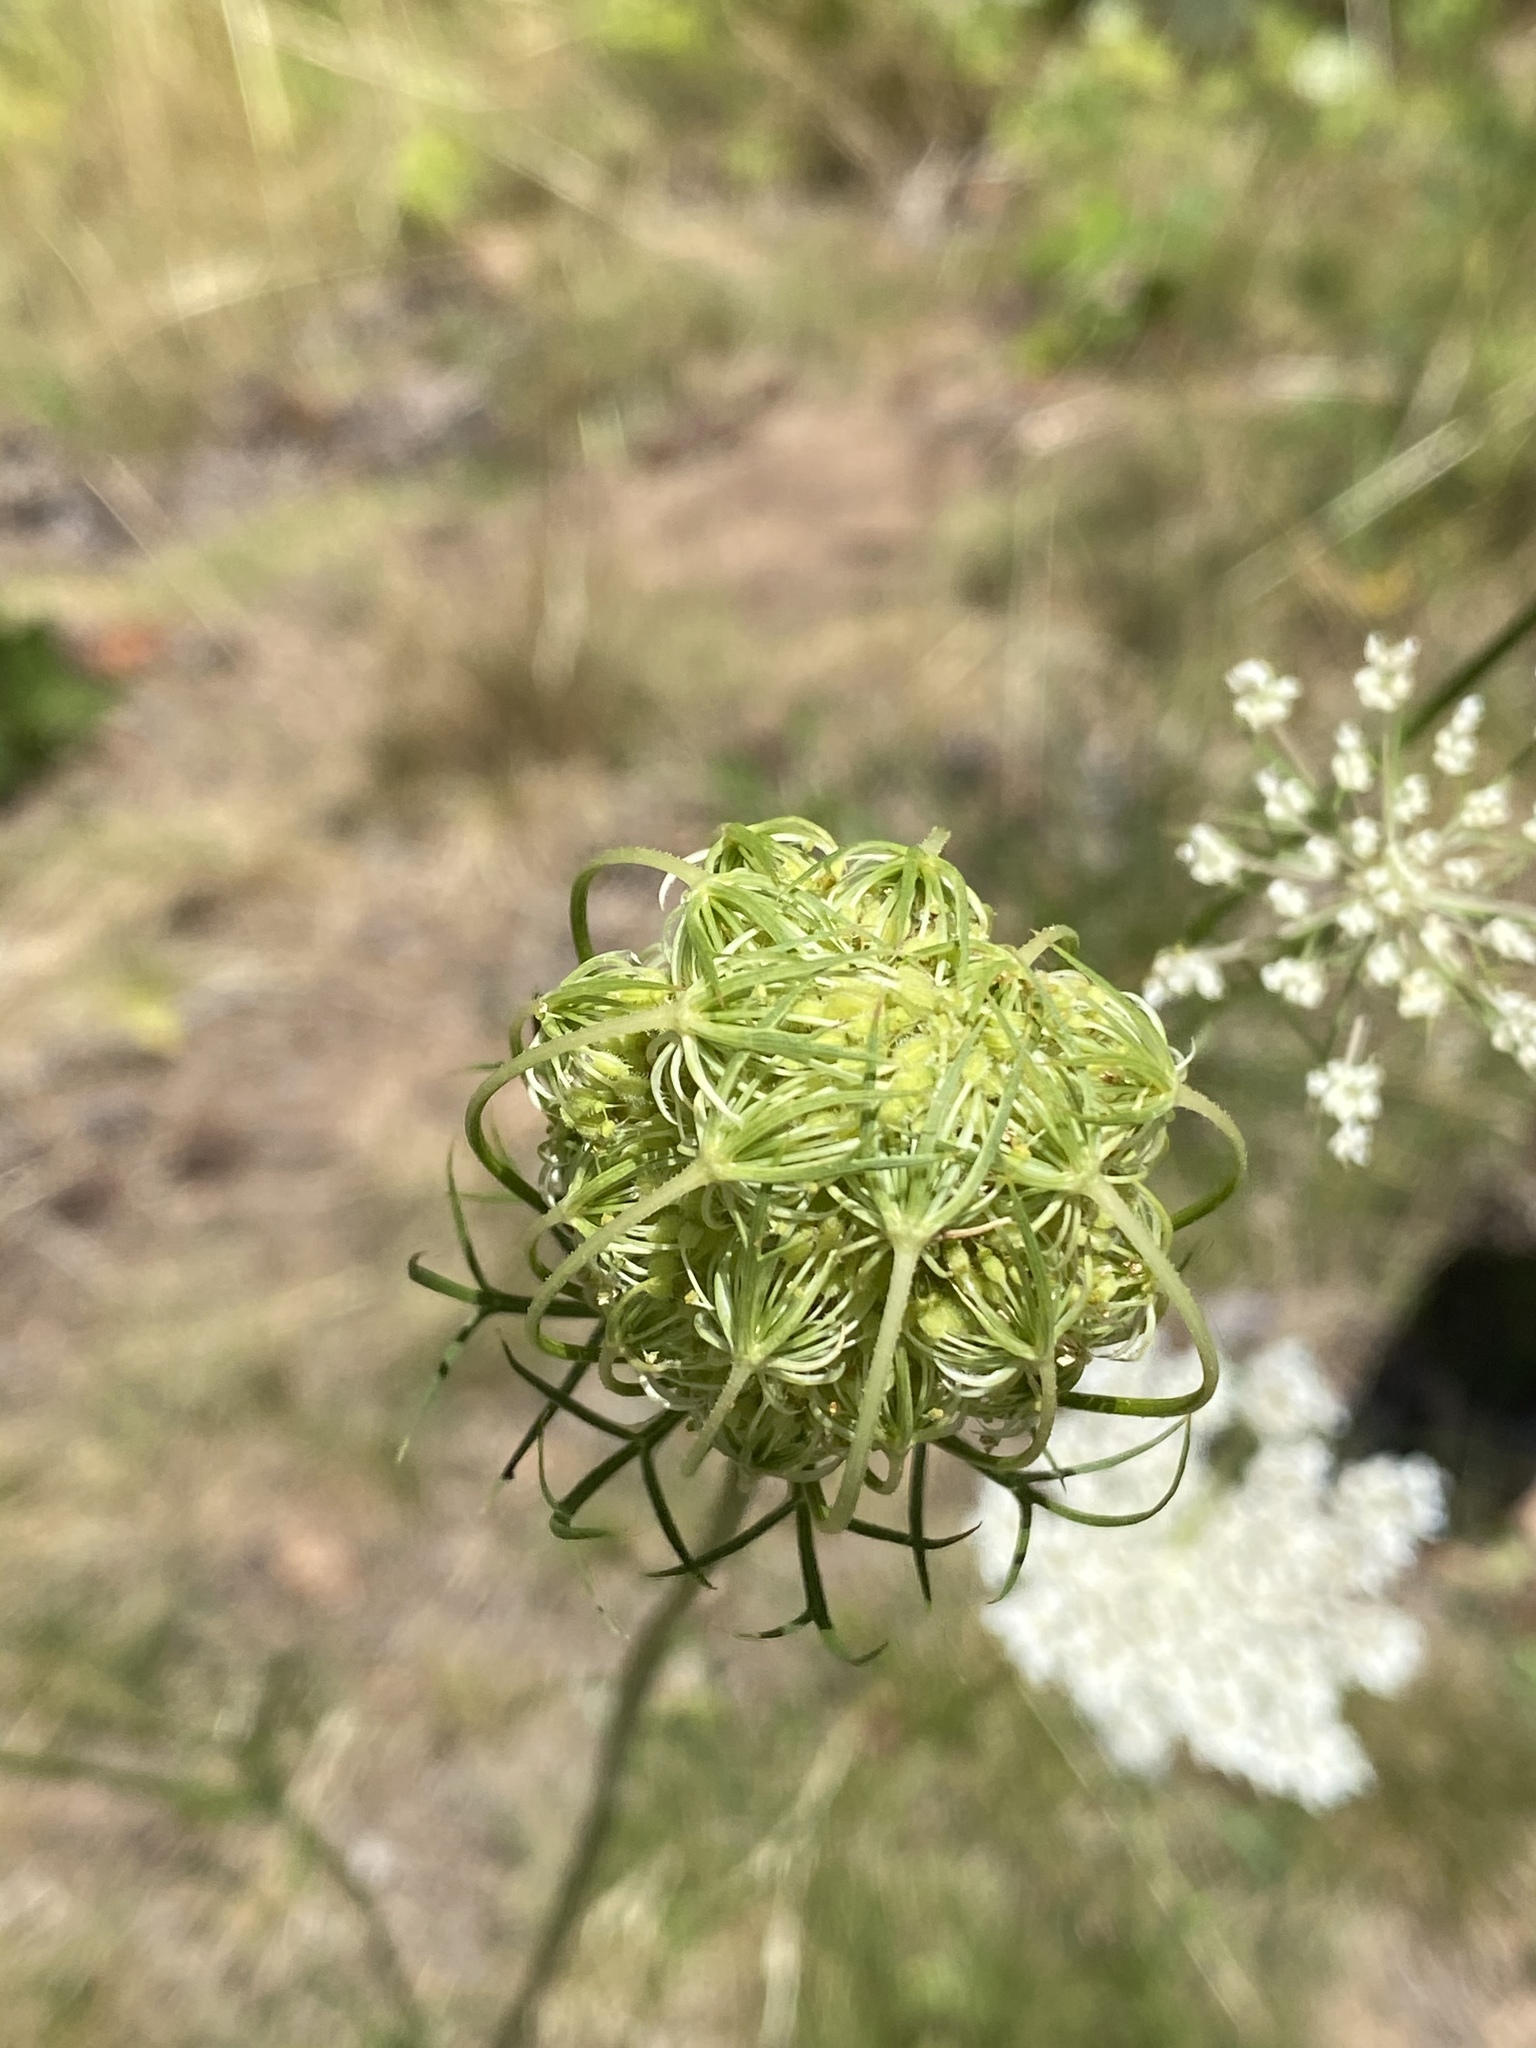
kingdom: Plantae
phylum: Tracheophyta
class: Magnoliopsida
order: Apiales
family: Apiaceae
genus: Daucus
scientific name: Daucus carota
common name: Wild carrot
